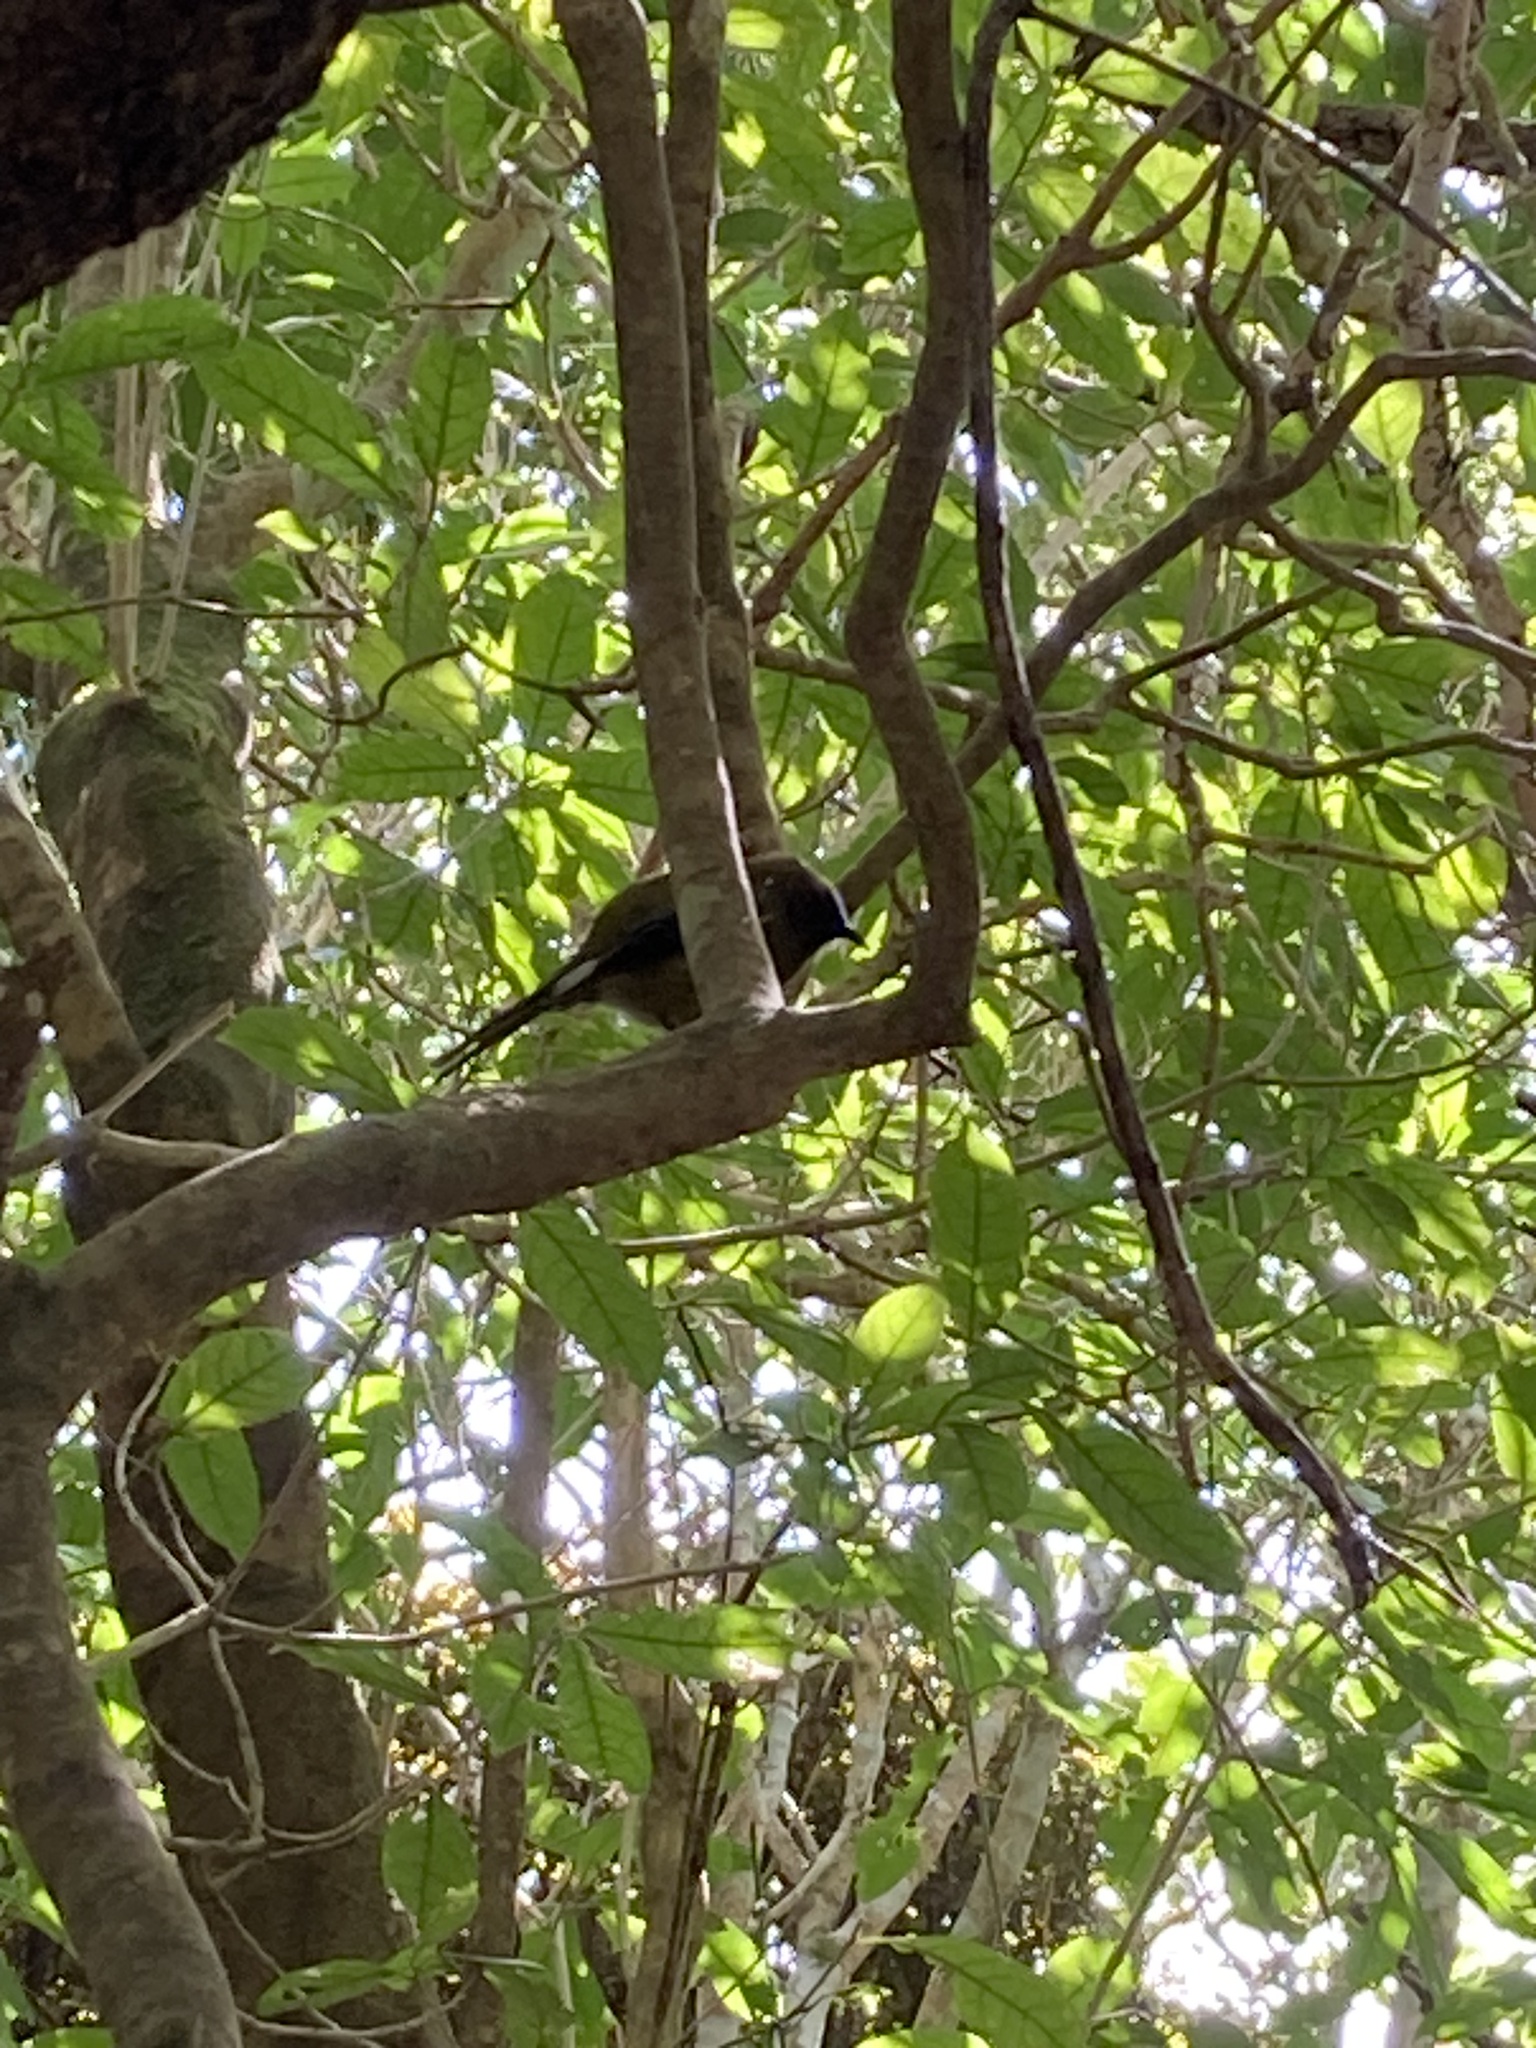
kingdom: Animalia
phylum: Chordata
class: Aves
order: Passeriformes
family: Meliphagidae
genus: Anthornis
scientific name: Anthornis melanura
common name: New zealand bellbird
